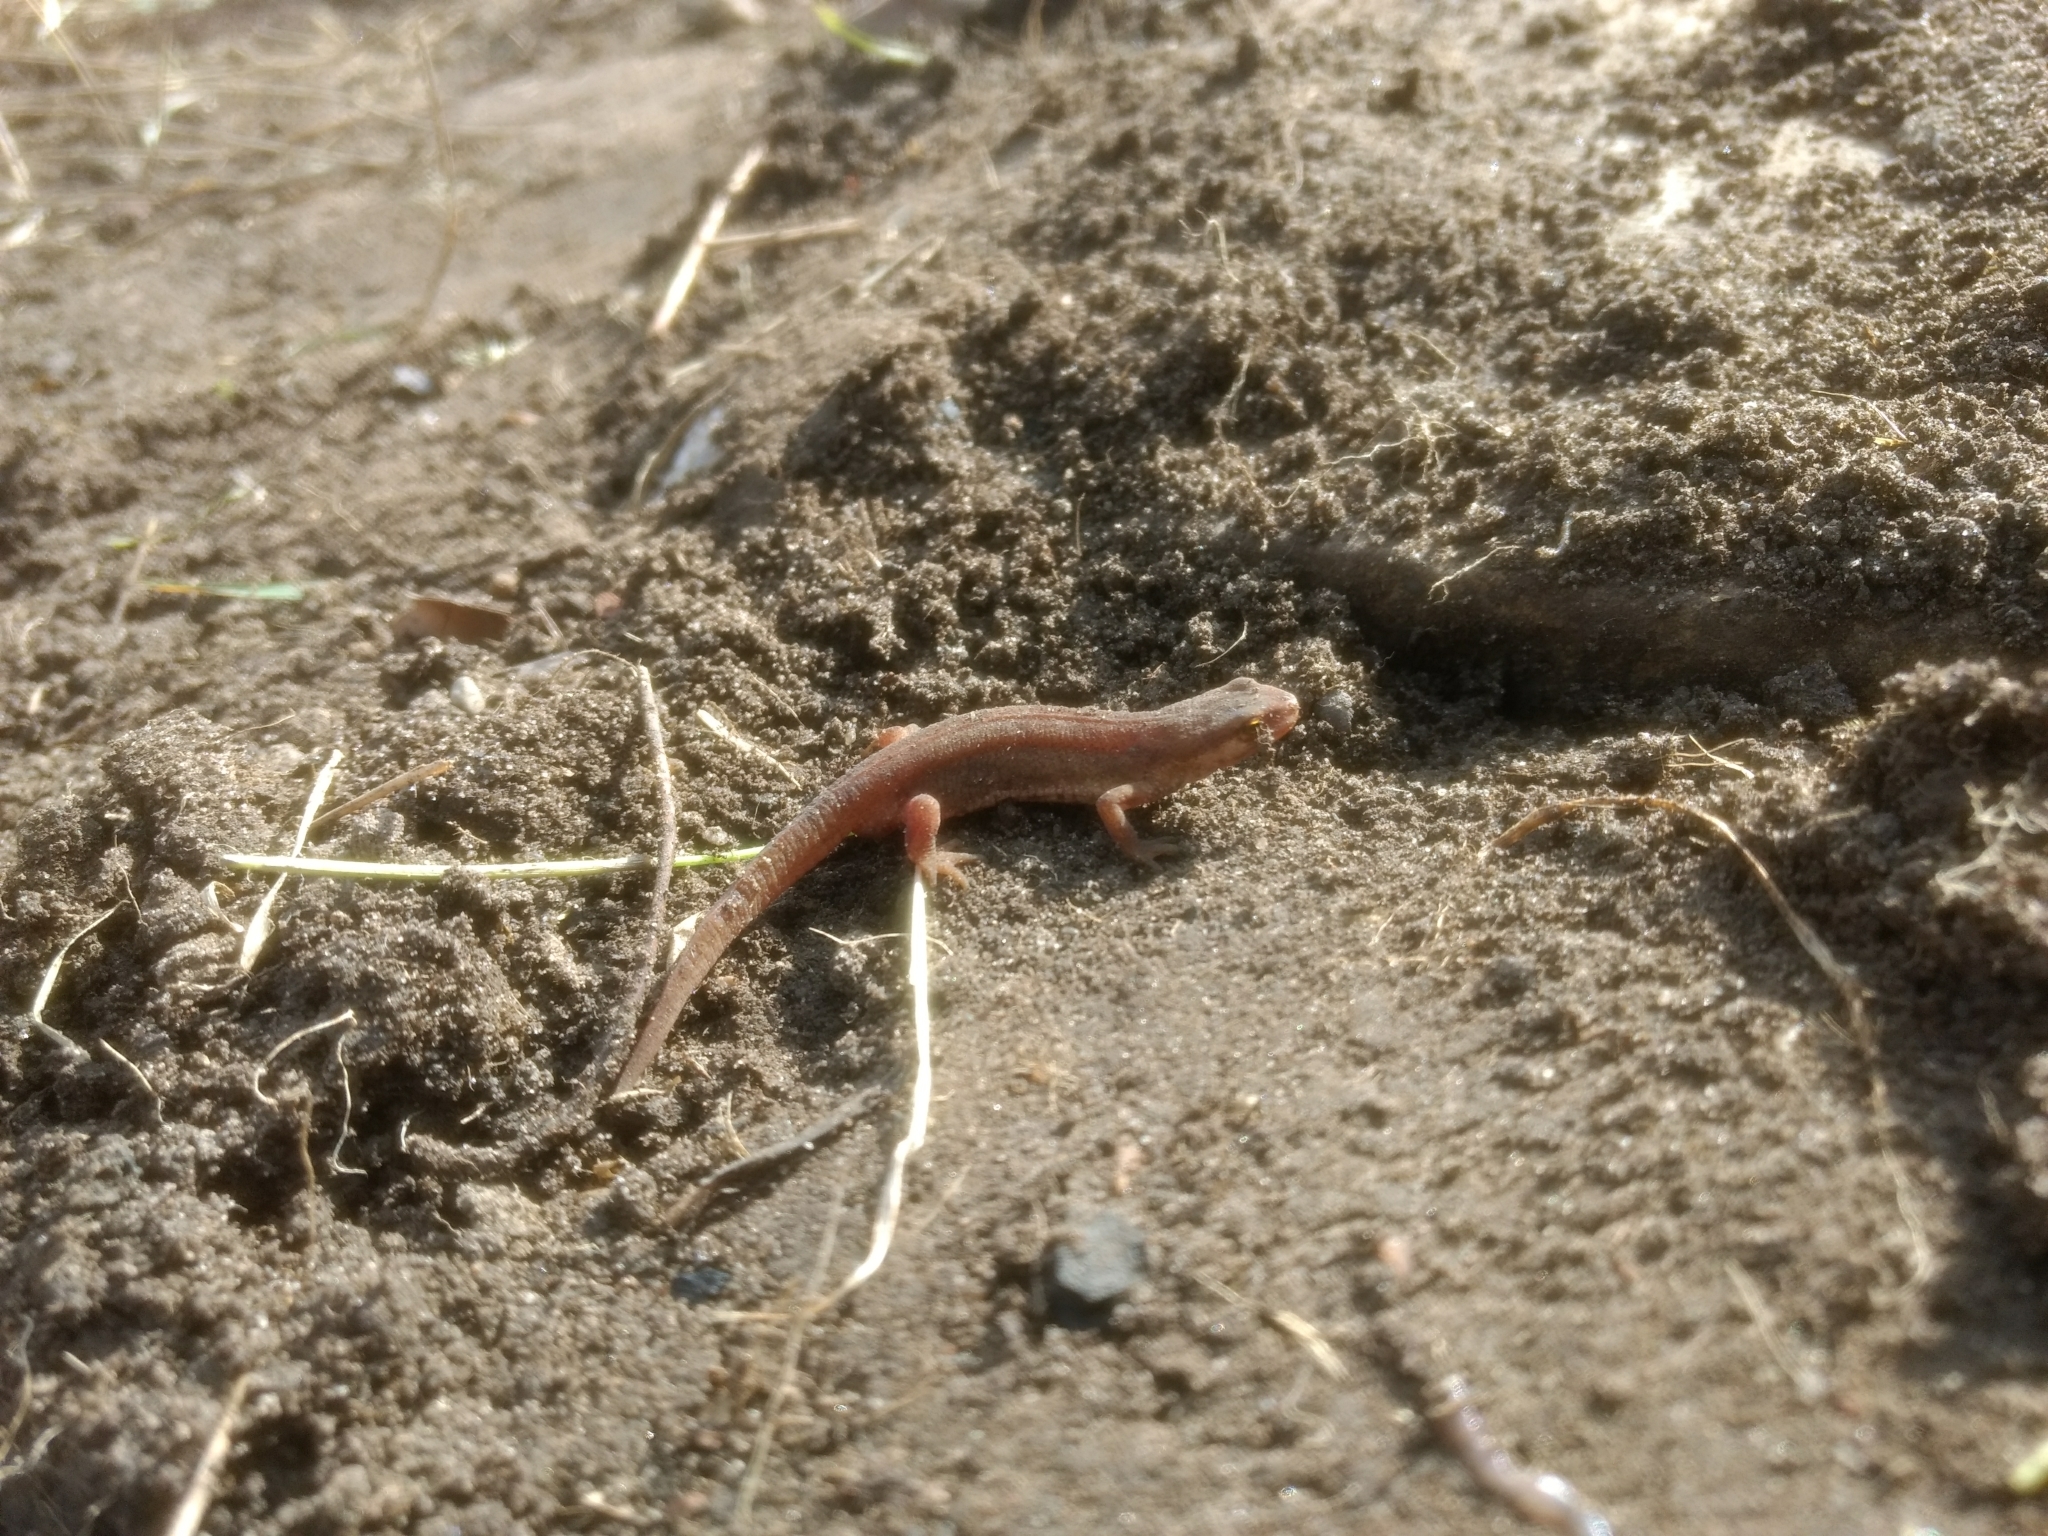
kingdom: Animalia
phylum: Chordata
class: Amphibia
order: Caudata
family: Salamandridae
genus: Lissotriton
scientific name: Lissotriton vulgaris
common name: Smooth newt
